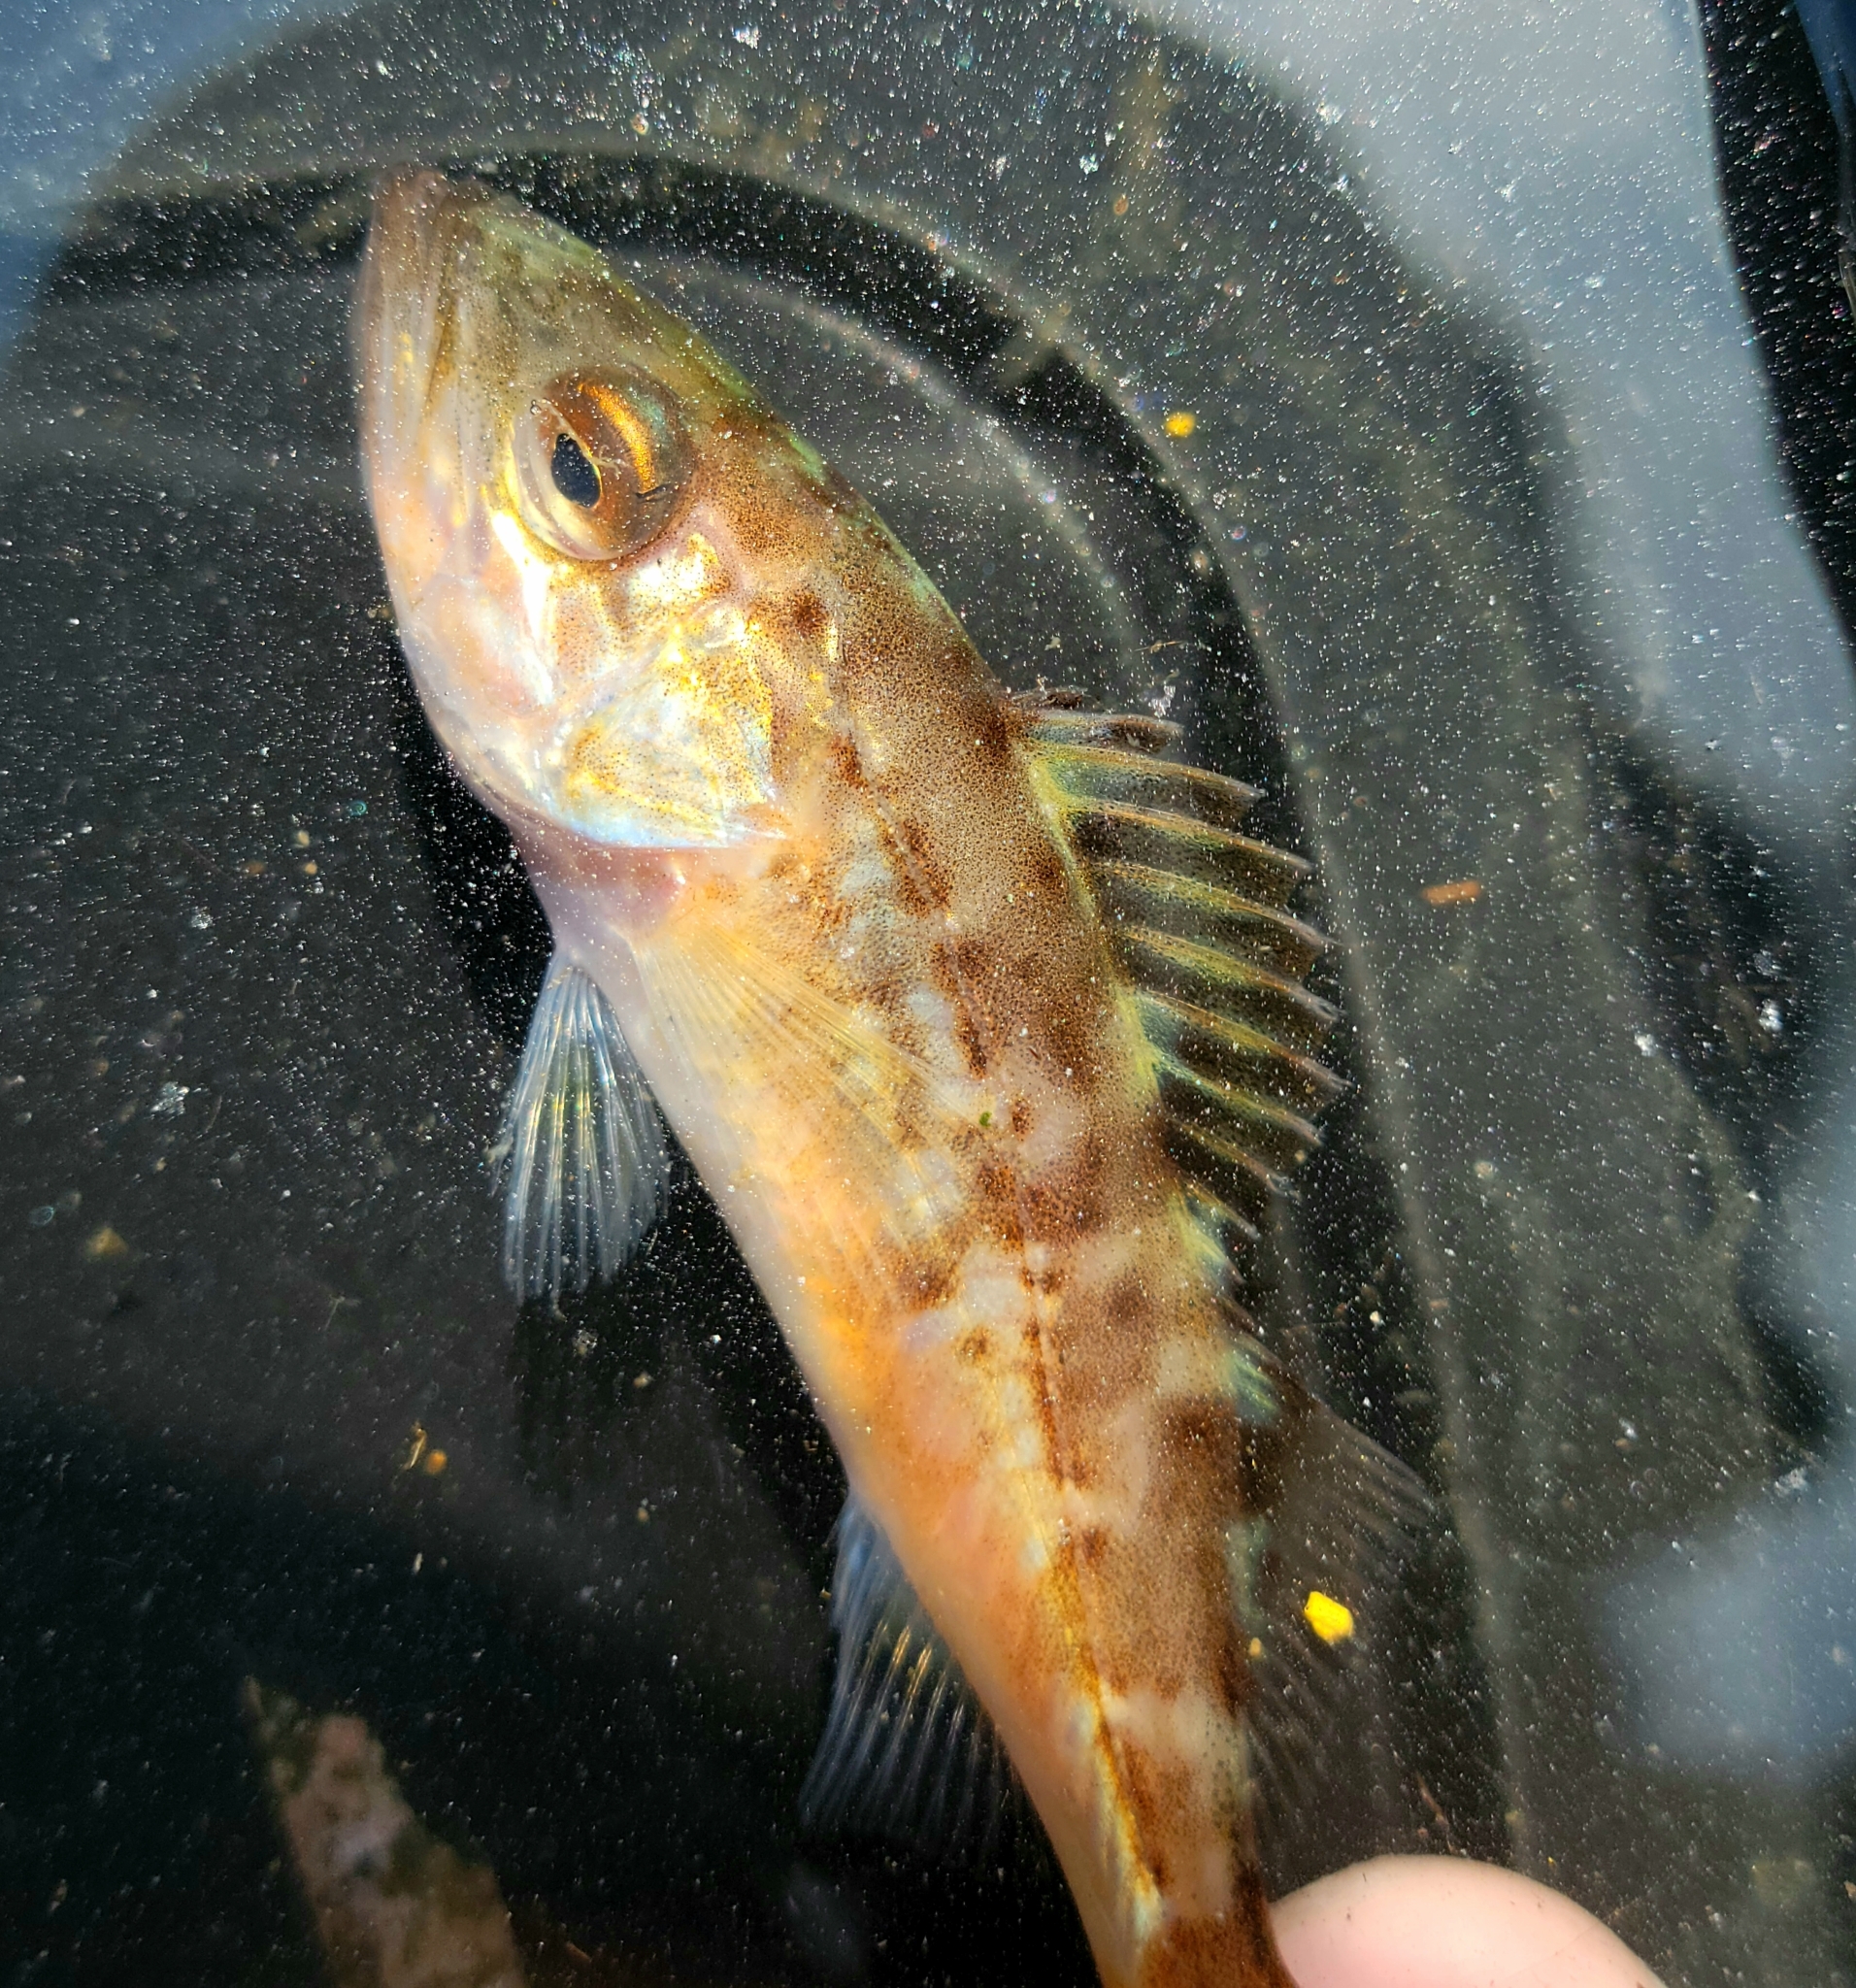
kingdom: Animalia
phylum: Chordata
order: Scorpaeniformes
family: Sebastidae
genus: Sebastes
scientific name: Sebastes paucispinis
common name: Bocaccio
